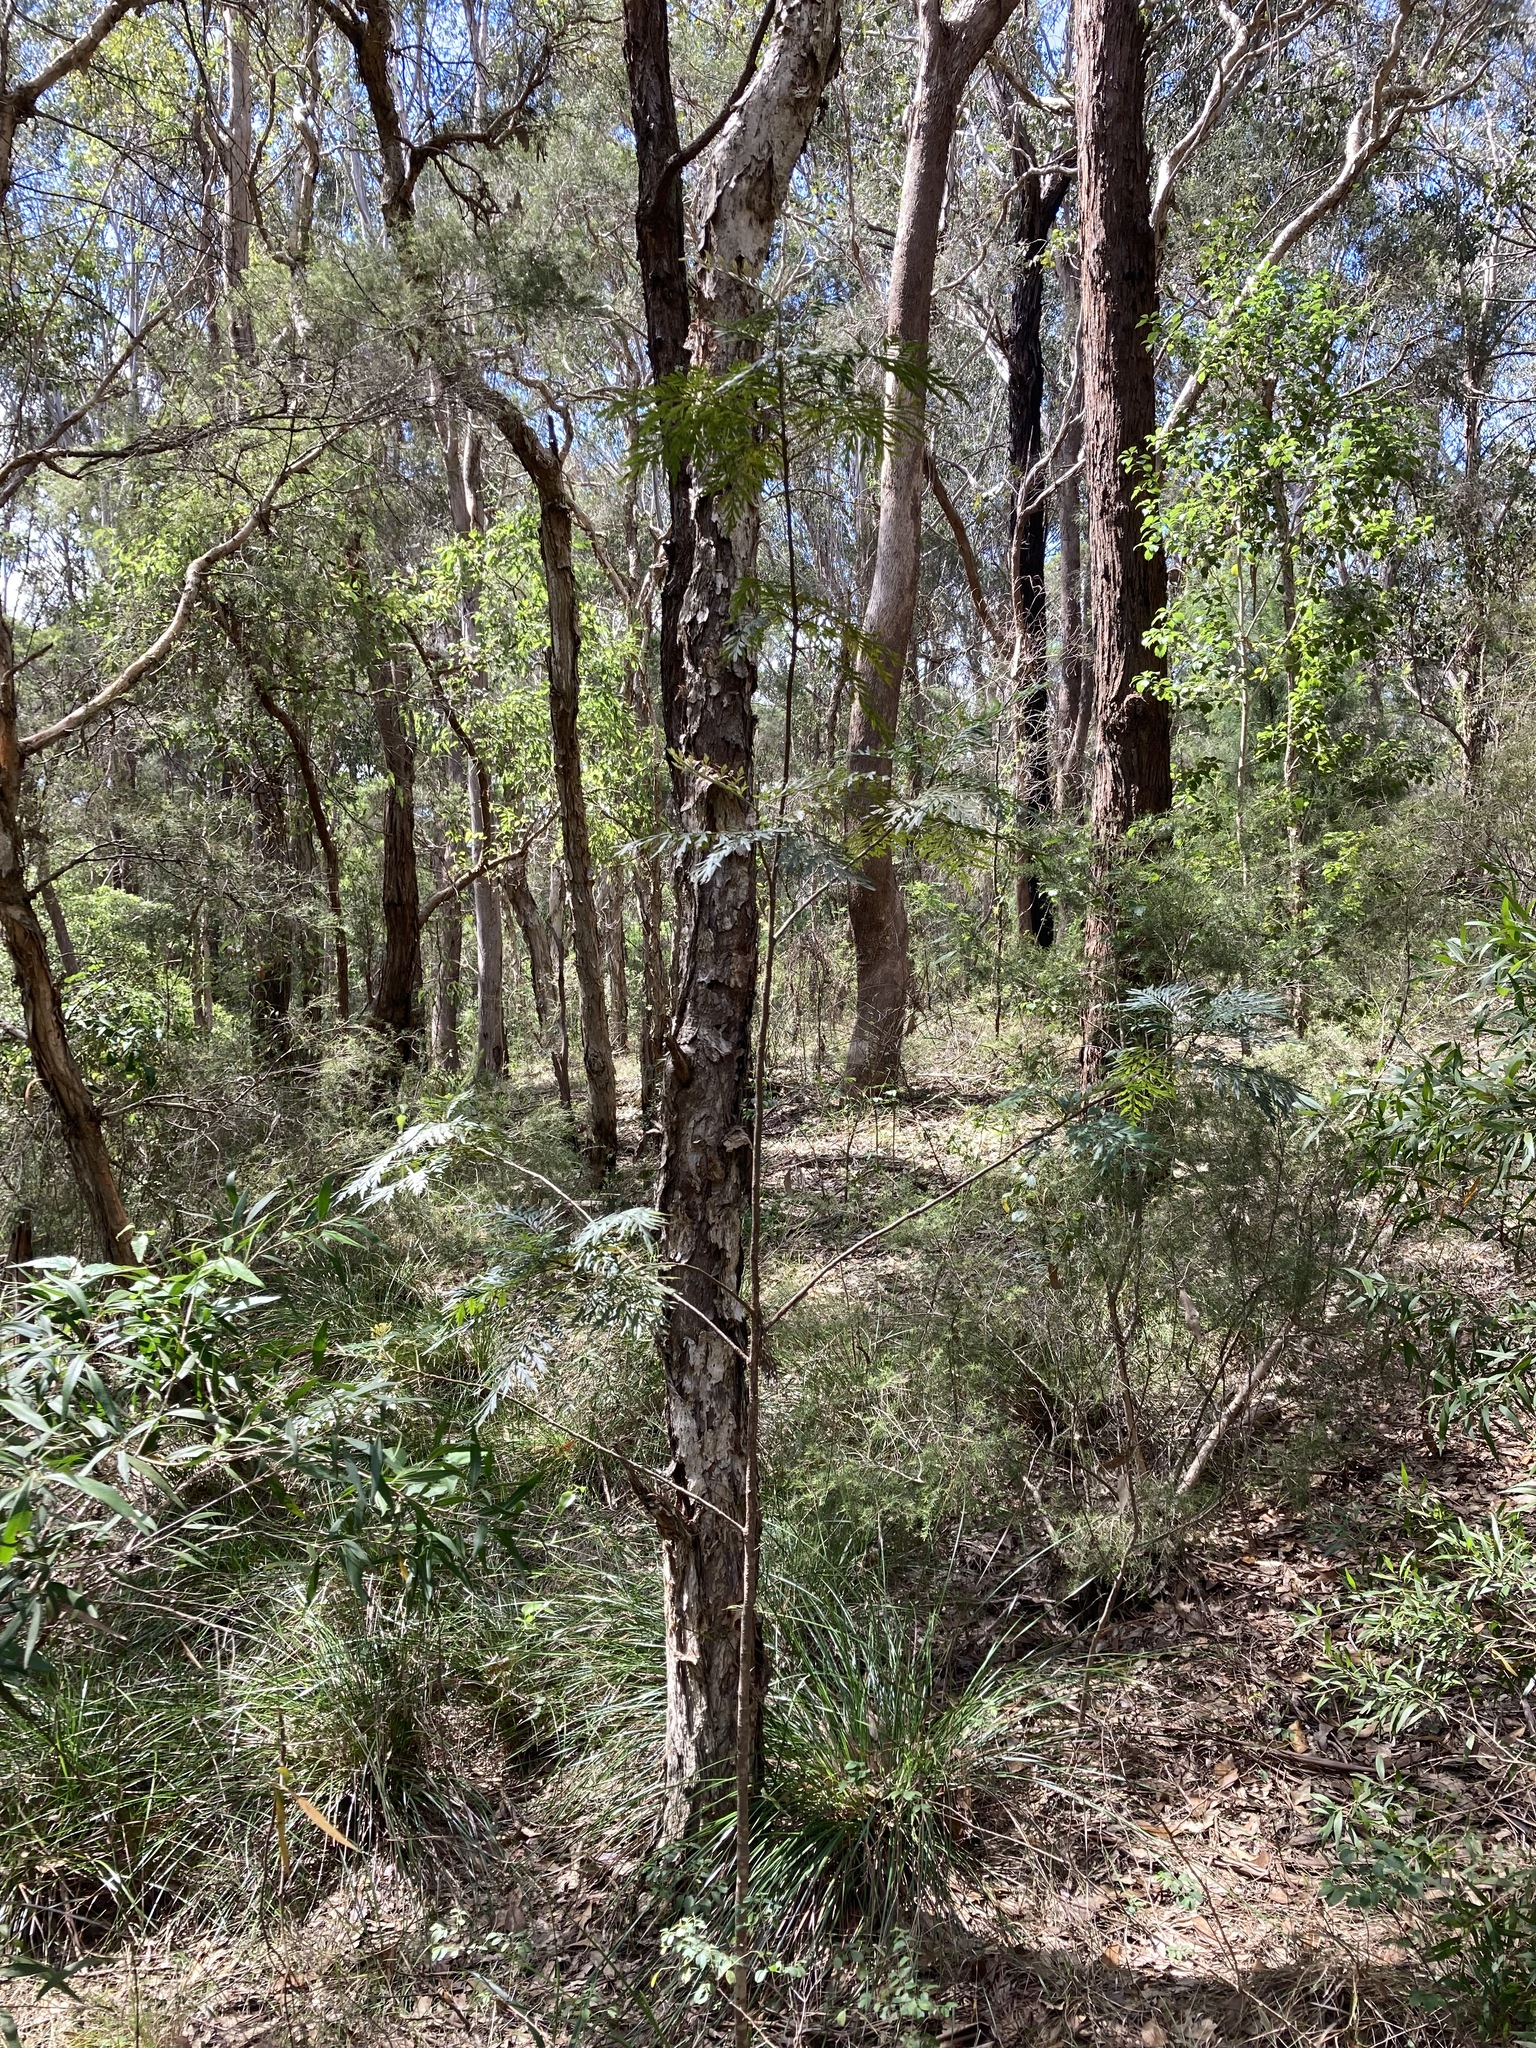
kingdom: Plantae
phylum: Tracheophyta
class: Magnoliopsida
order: Proteales
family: Proteaceae
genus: Grevillea
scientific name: Grevillea robusta
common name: Silkoak
